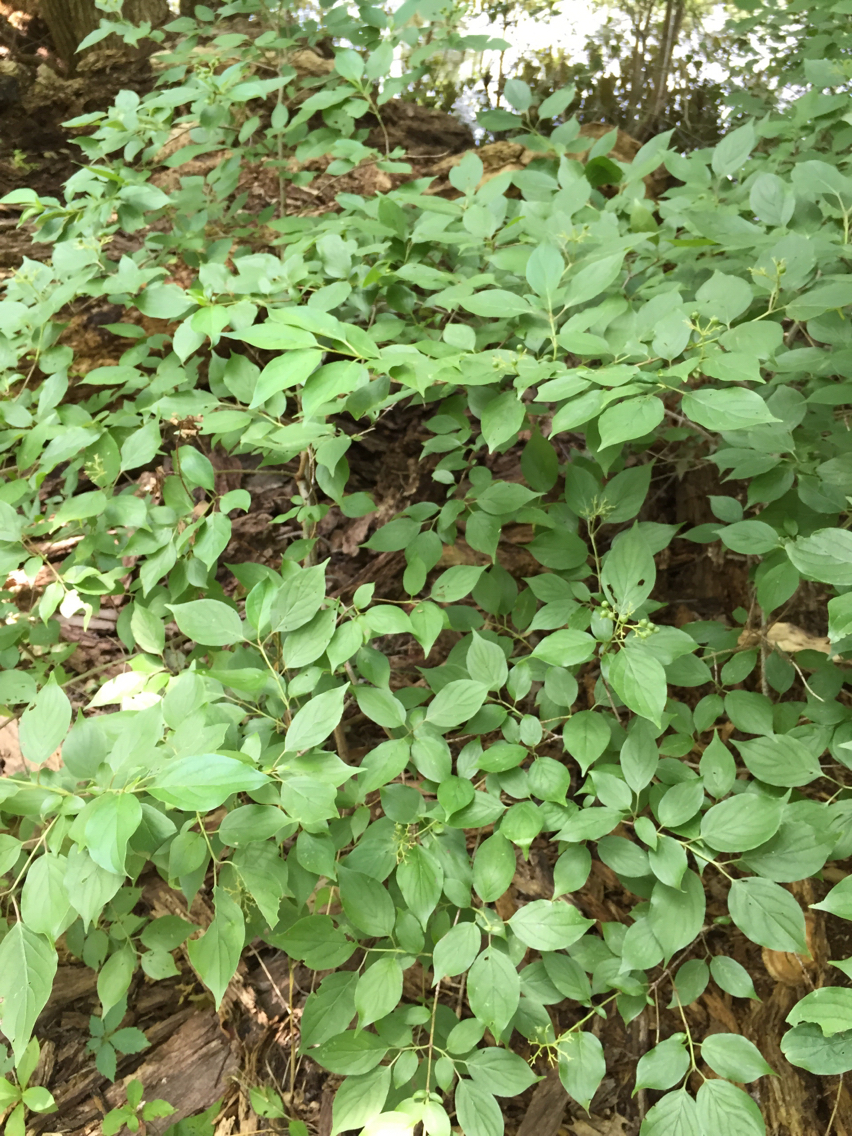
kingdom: Plantae
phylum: Tracheophyta
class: Magnoliopsida
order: Cornales
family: Cornaceae
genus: Cornus
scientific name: Cornus drummondii
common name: Rough-leaf dogwood
